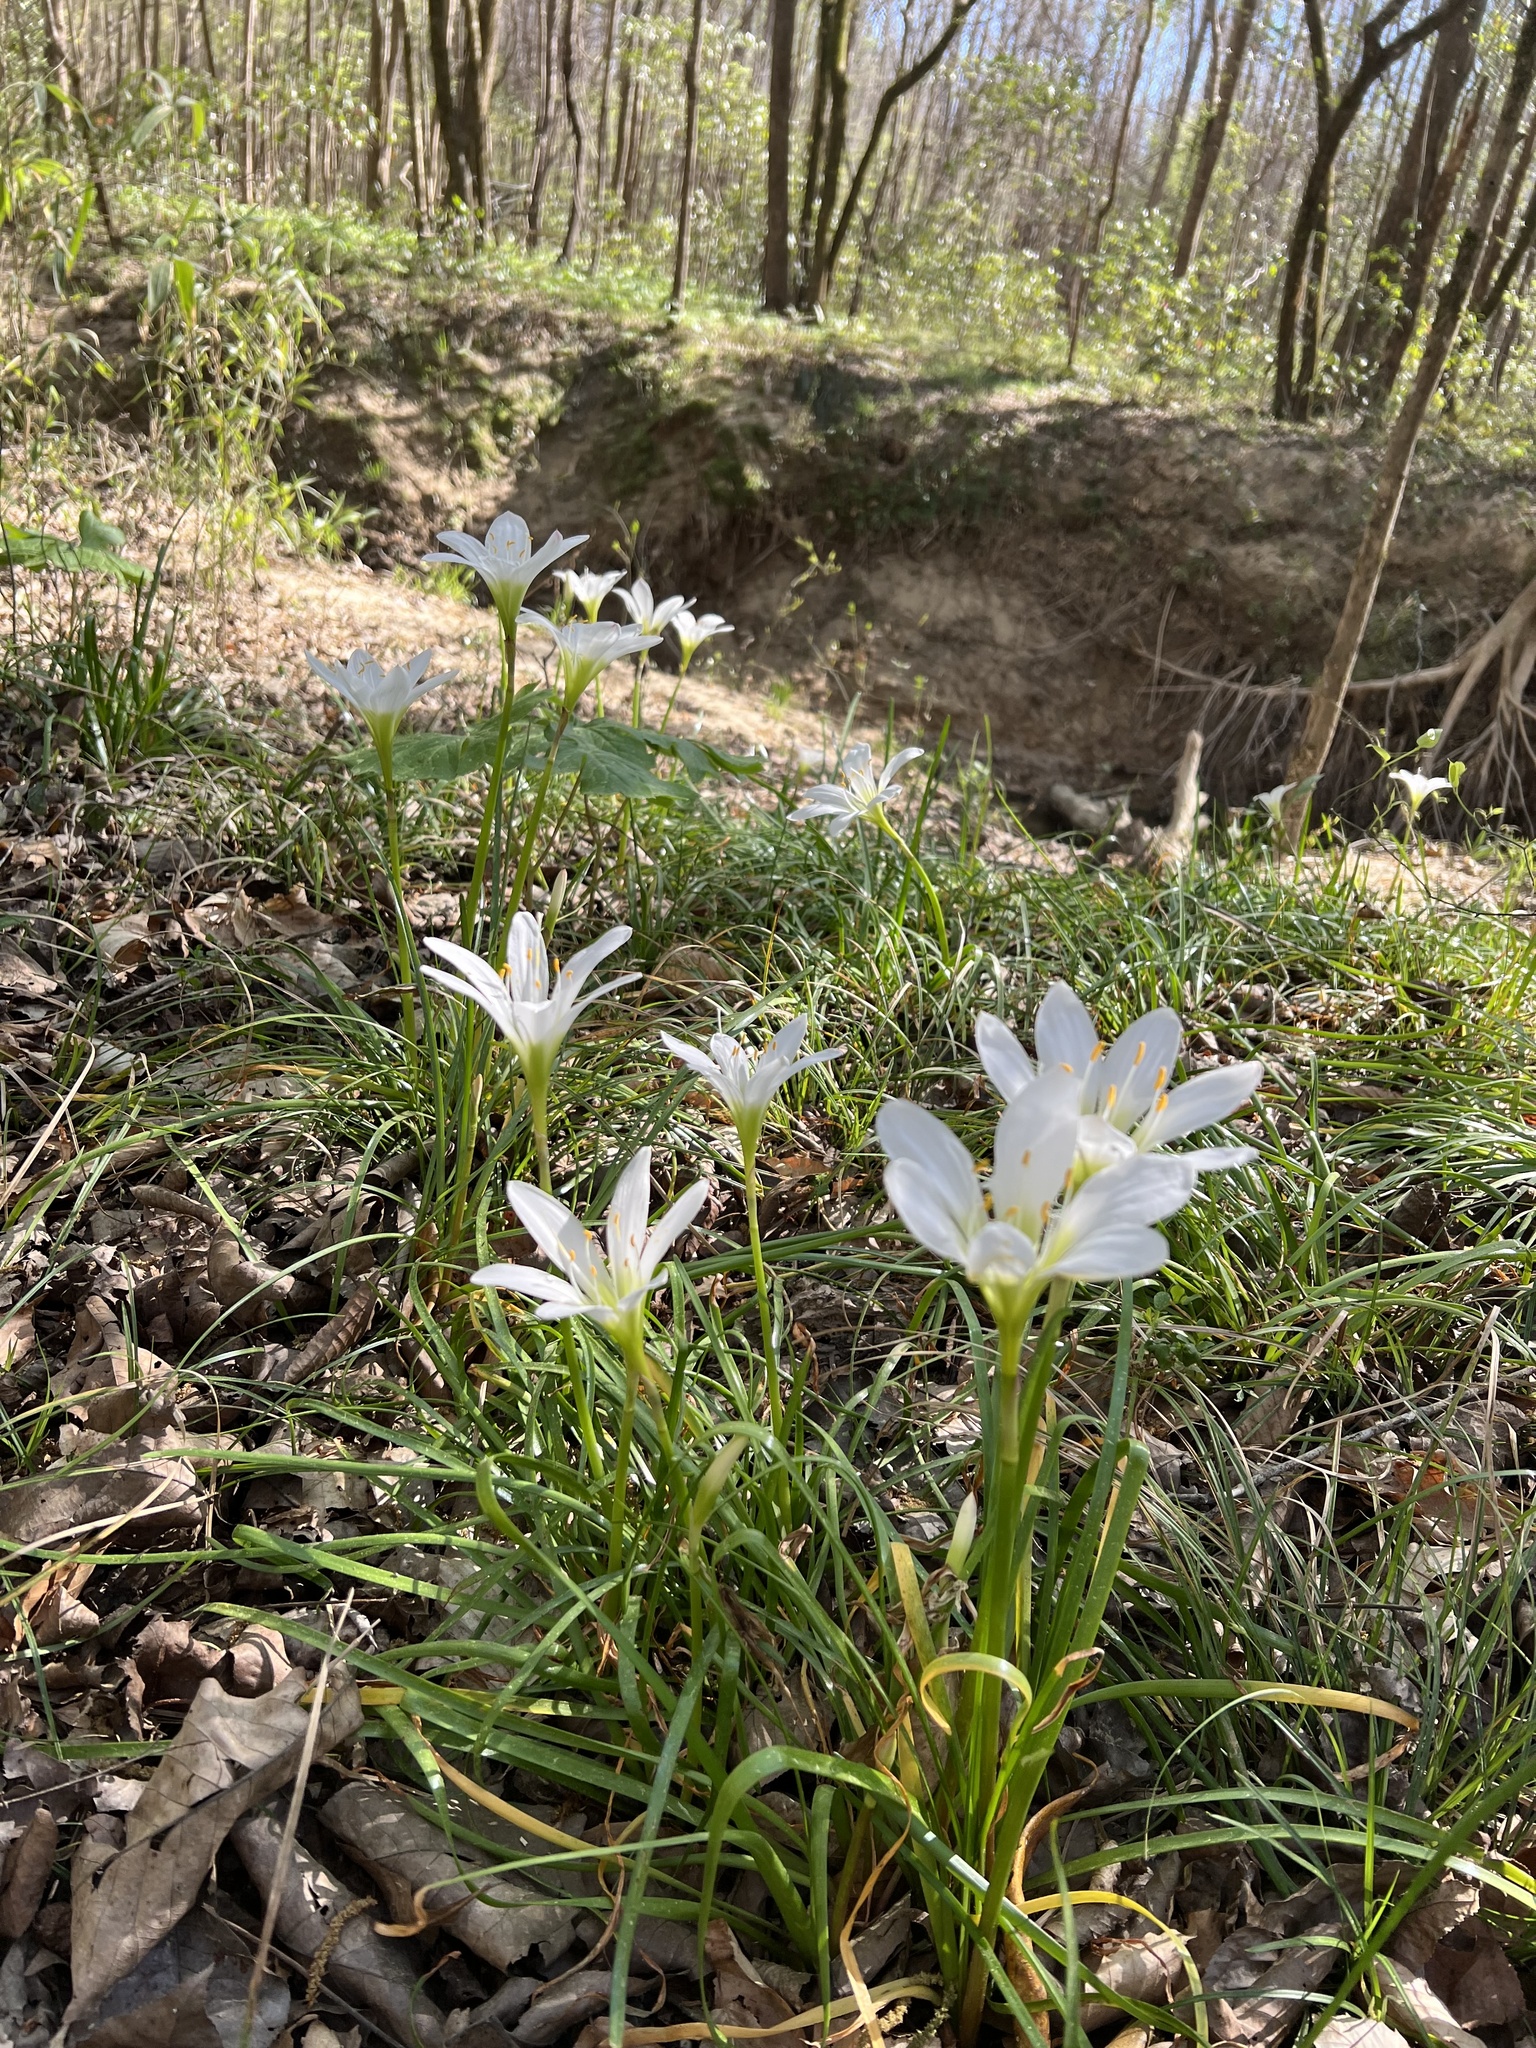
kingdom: Plantae
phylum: Tracheophyta
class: Liliopsida
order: Asparagales
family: Amaryllidaceae
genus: Zephyranthes
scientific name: Zephyranthes atamasco
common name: Atamasco lily
